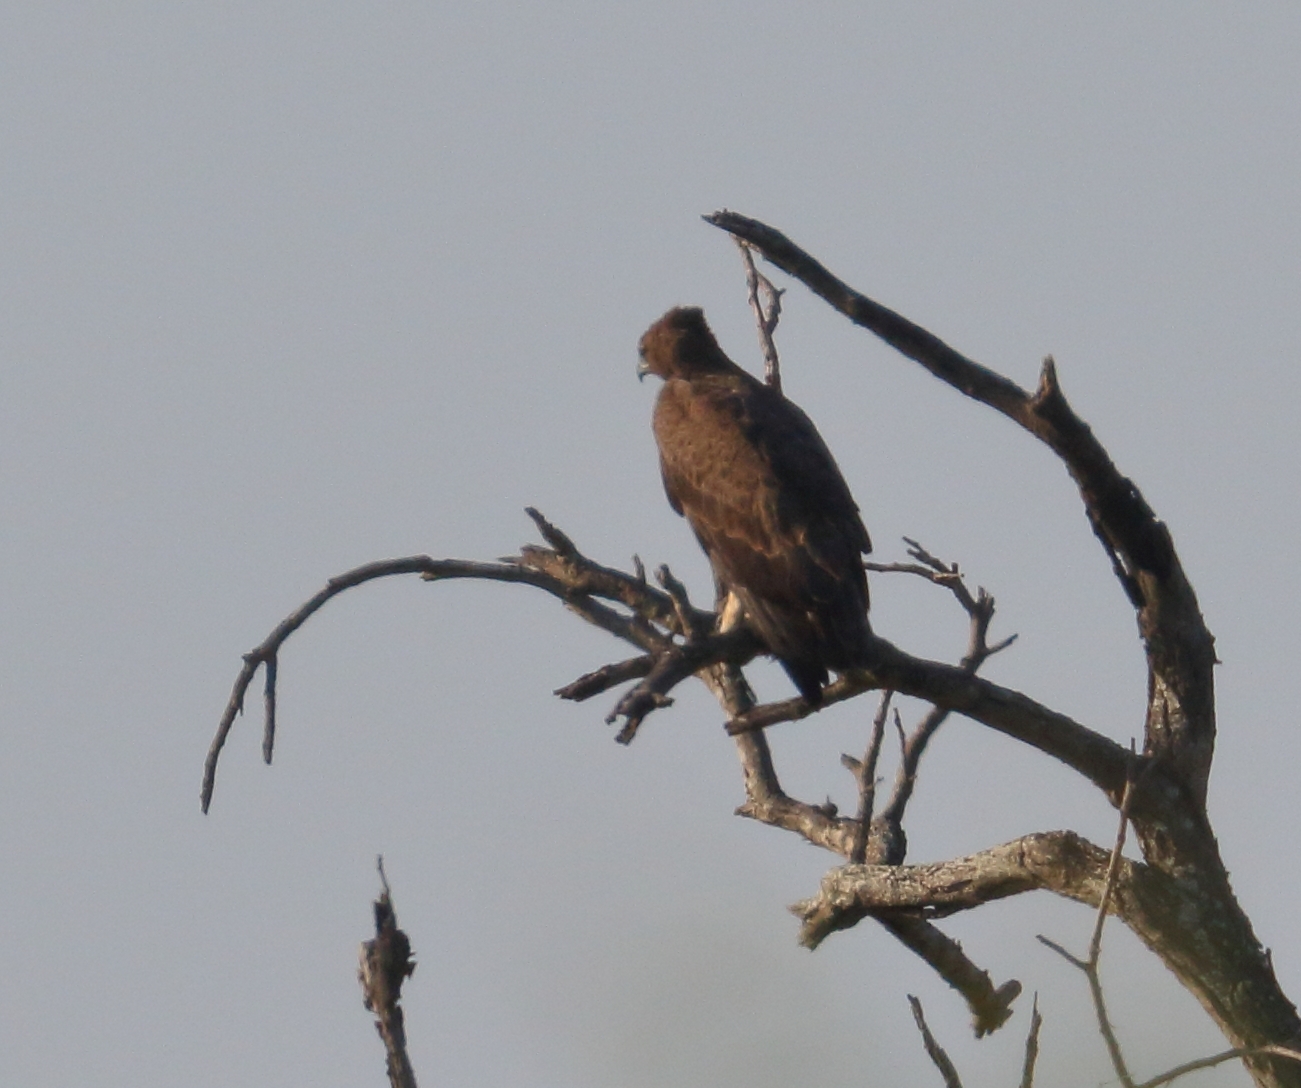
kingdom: Animalia
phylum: Chordata
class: Aves
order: Accipitriformes
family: Accipitridae
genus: Polemaetus
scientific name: Polemaetus bellicosus
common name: Martial eagle
